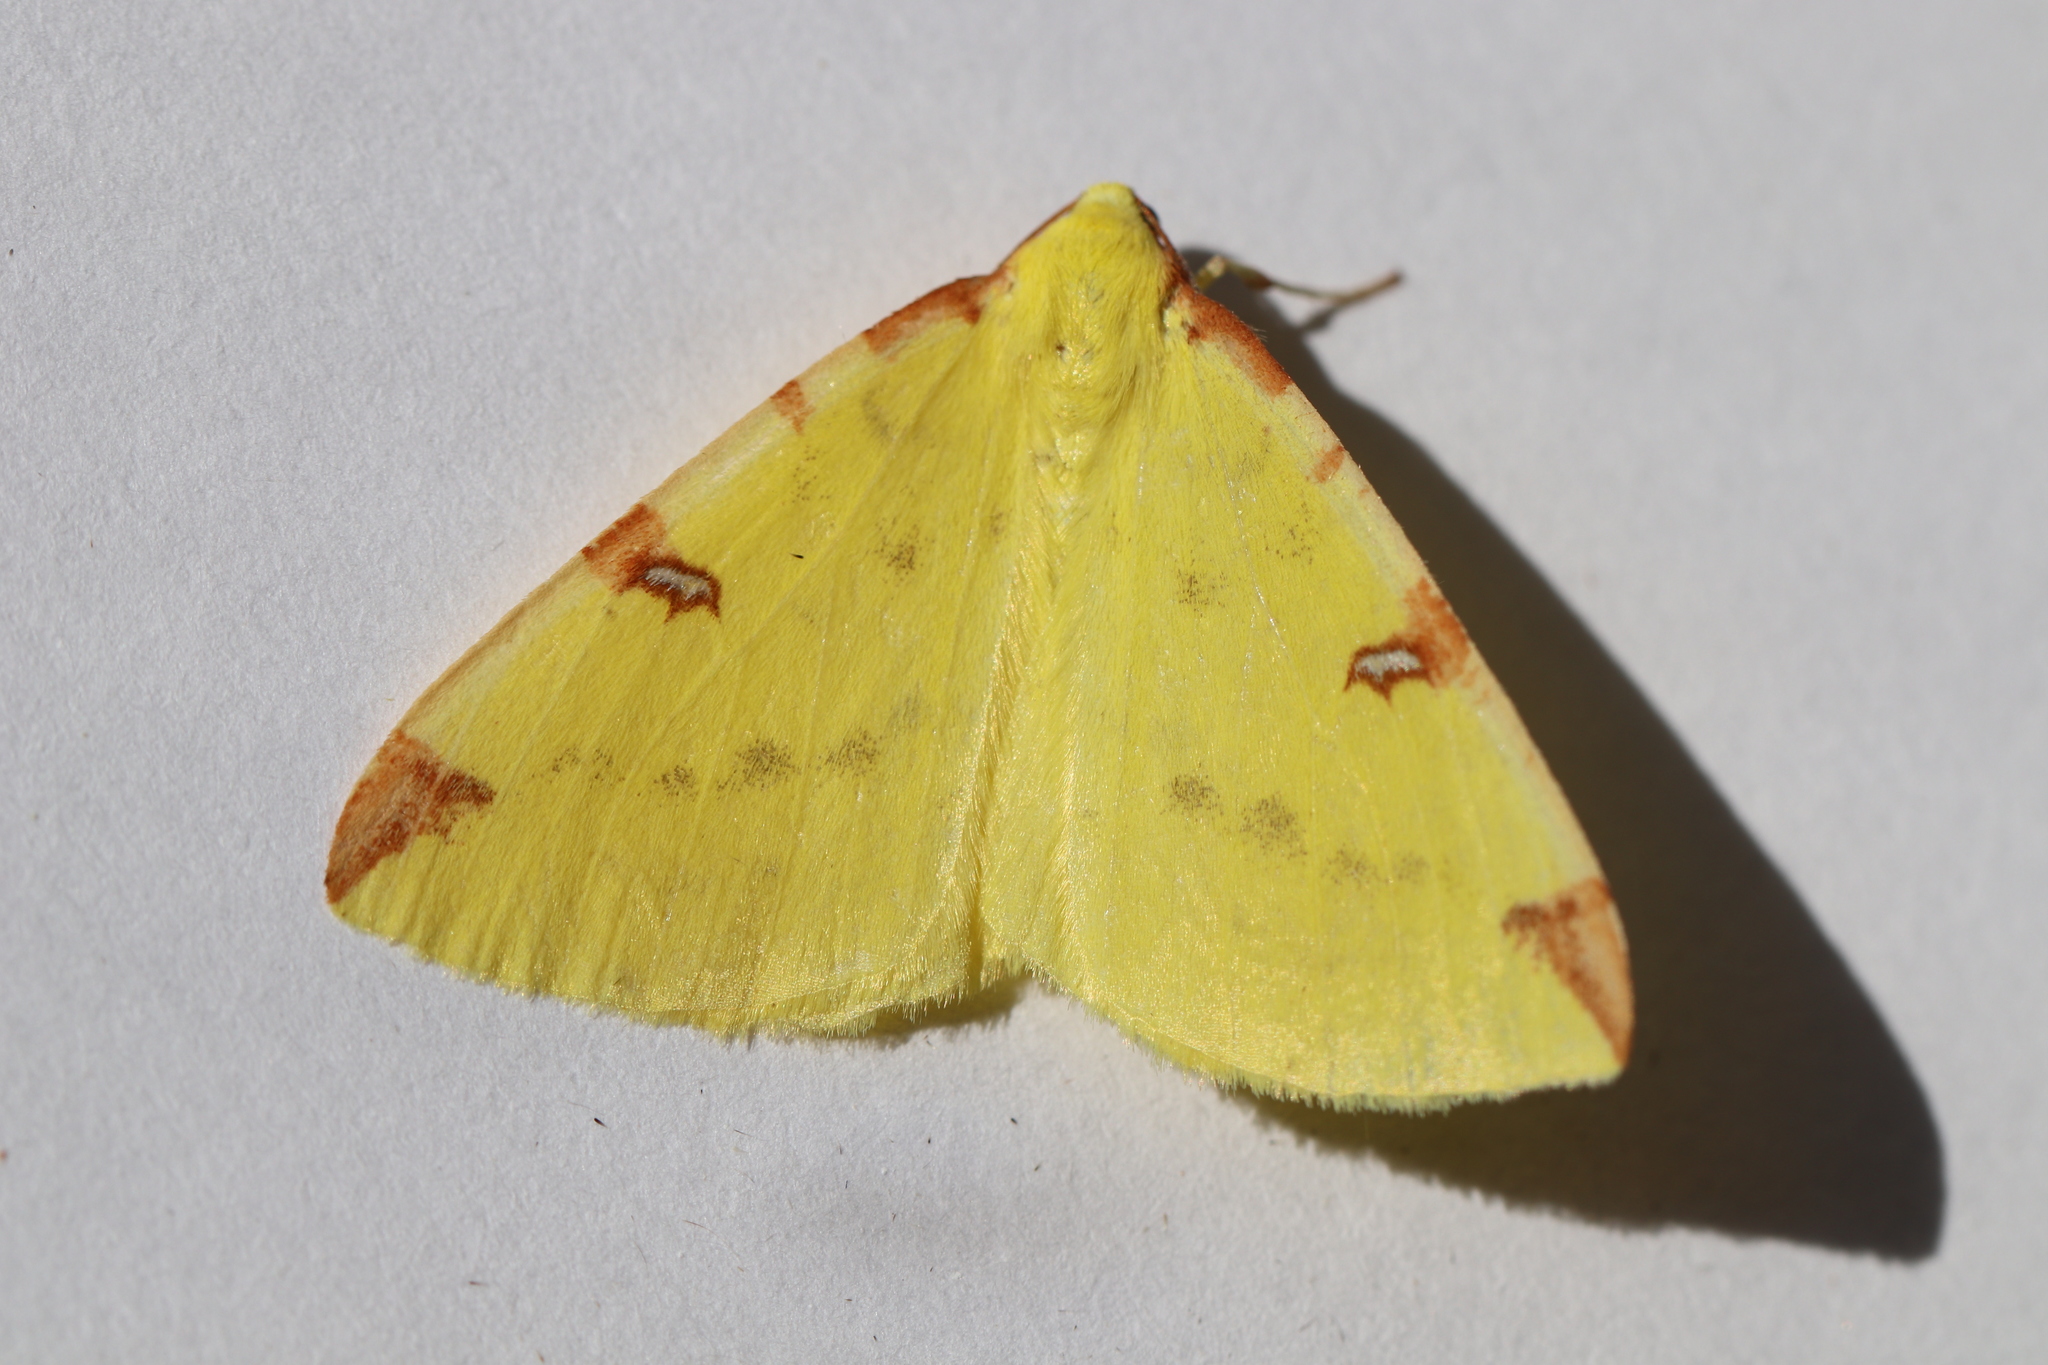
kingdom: Animalia
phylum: Arthropoda
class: Insecta
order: Lepidoptera
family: Geometridae
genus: Opisthograptis
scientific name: Opisthograptis luteolata
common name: Brimstone moth
